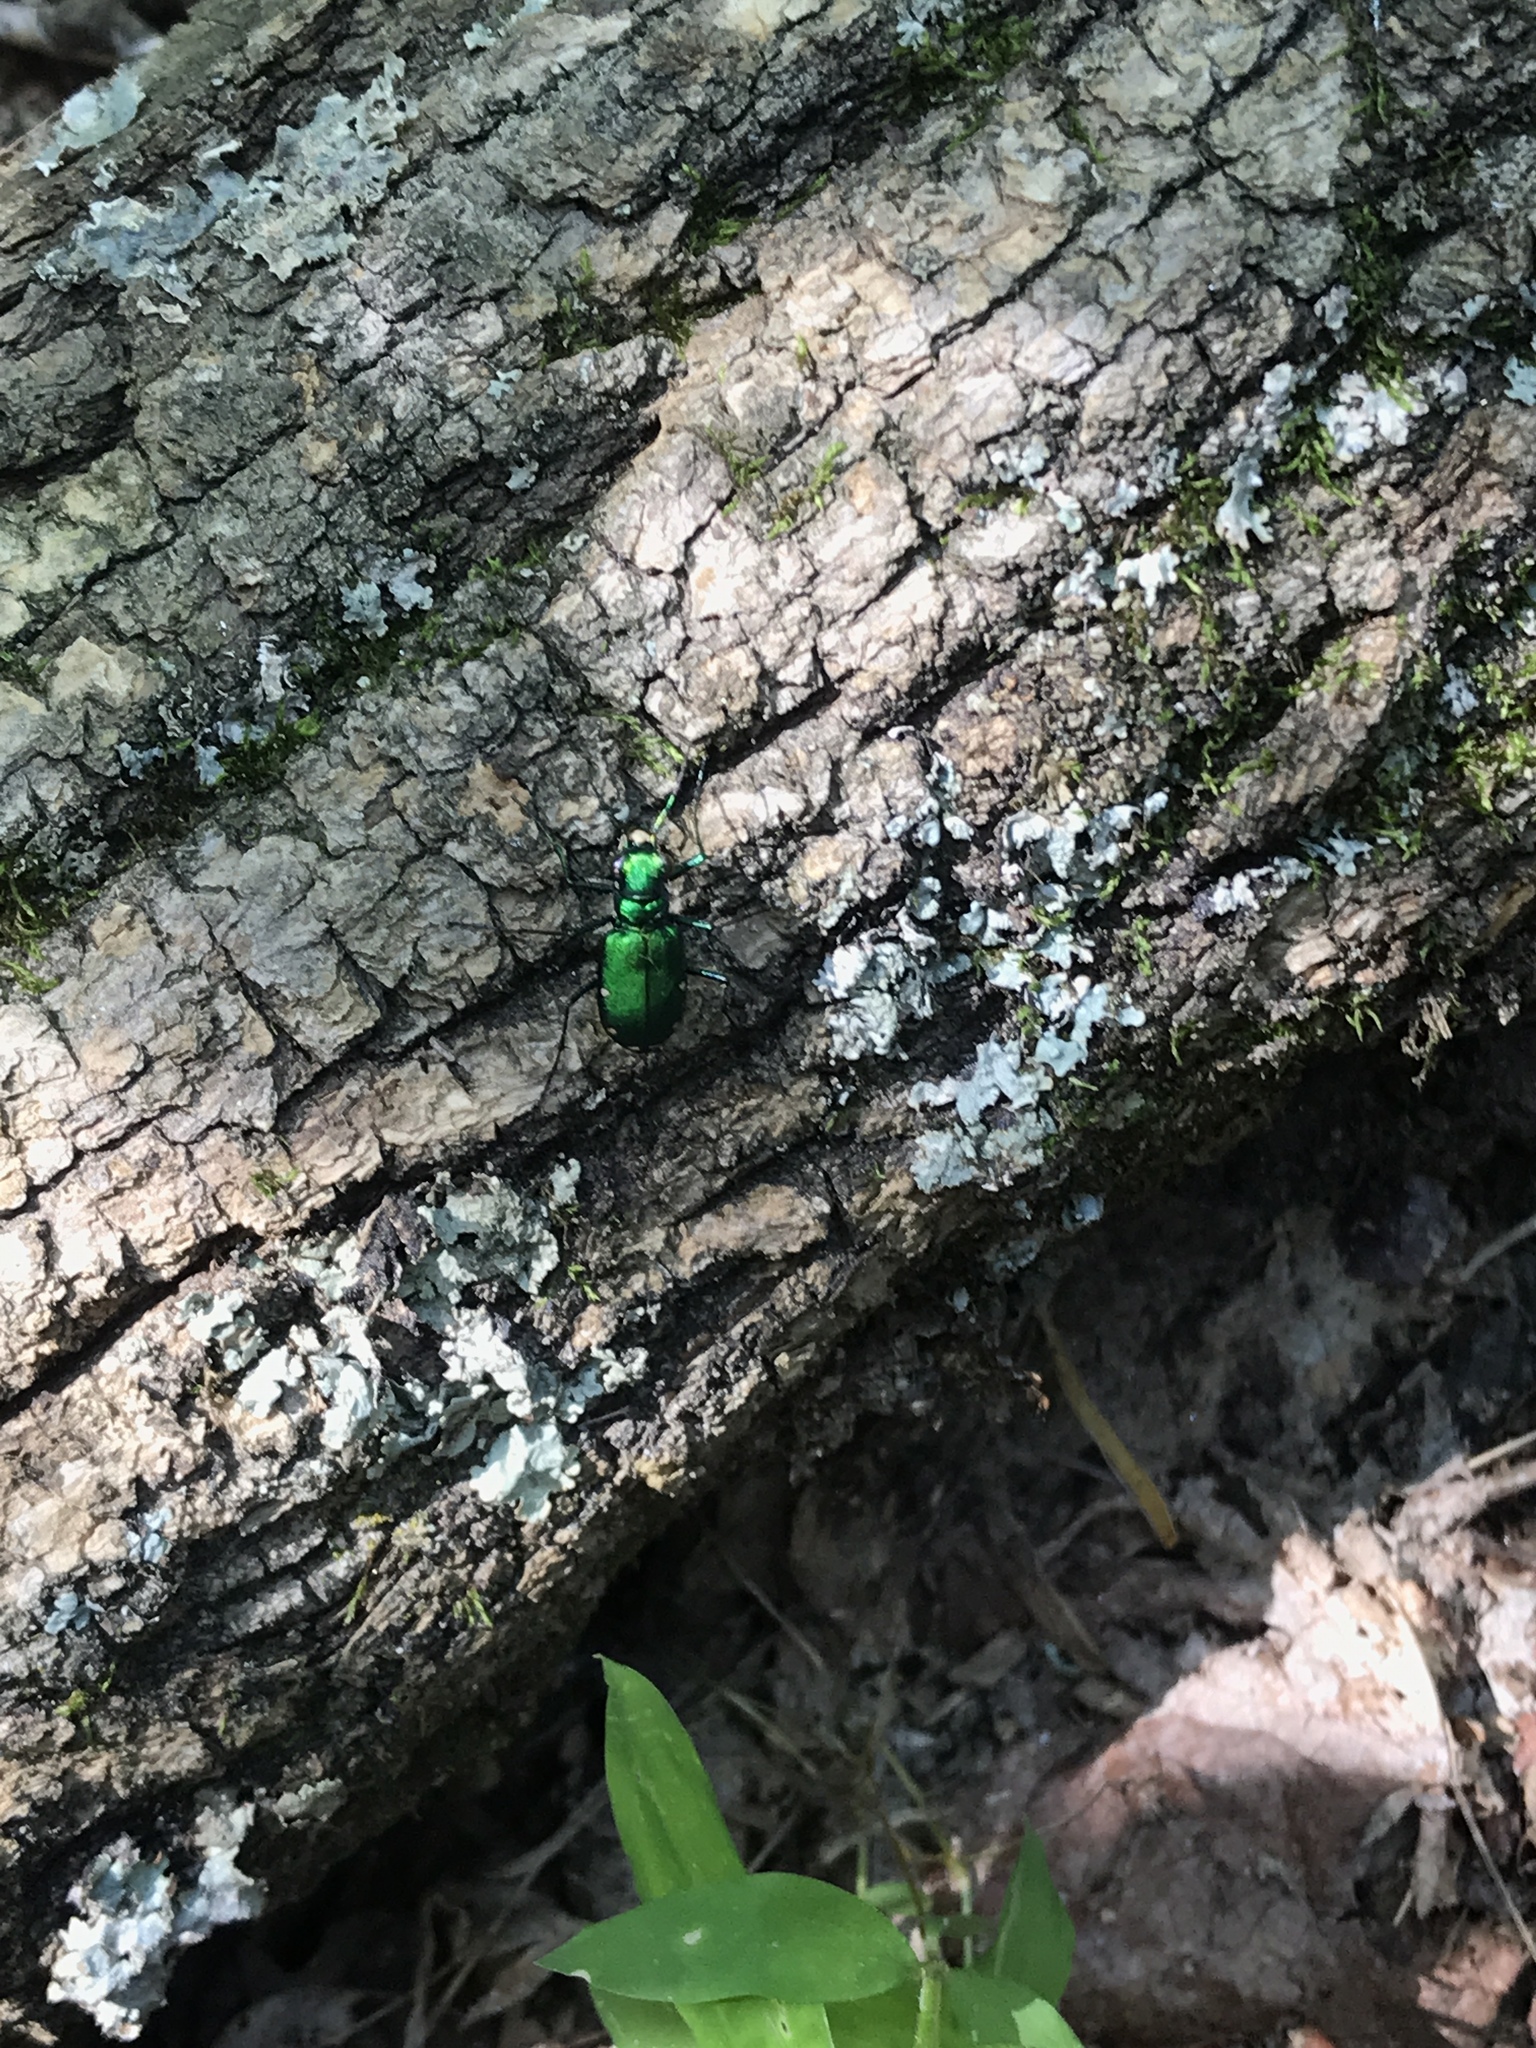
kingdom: Animalia
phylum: Arthropoda
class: Insecta
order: Coleoptera
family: Carabidae
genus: Cicindela
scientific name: Cicindela sexguttata
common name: Six-spotted tiger beetle
